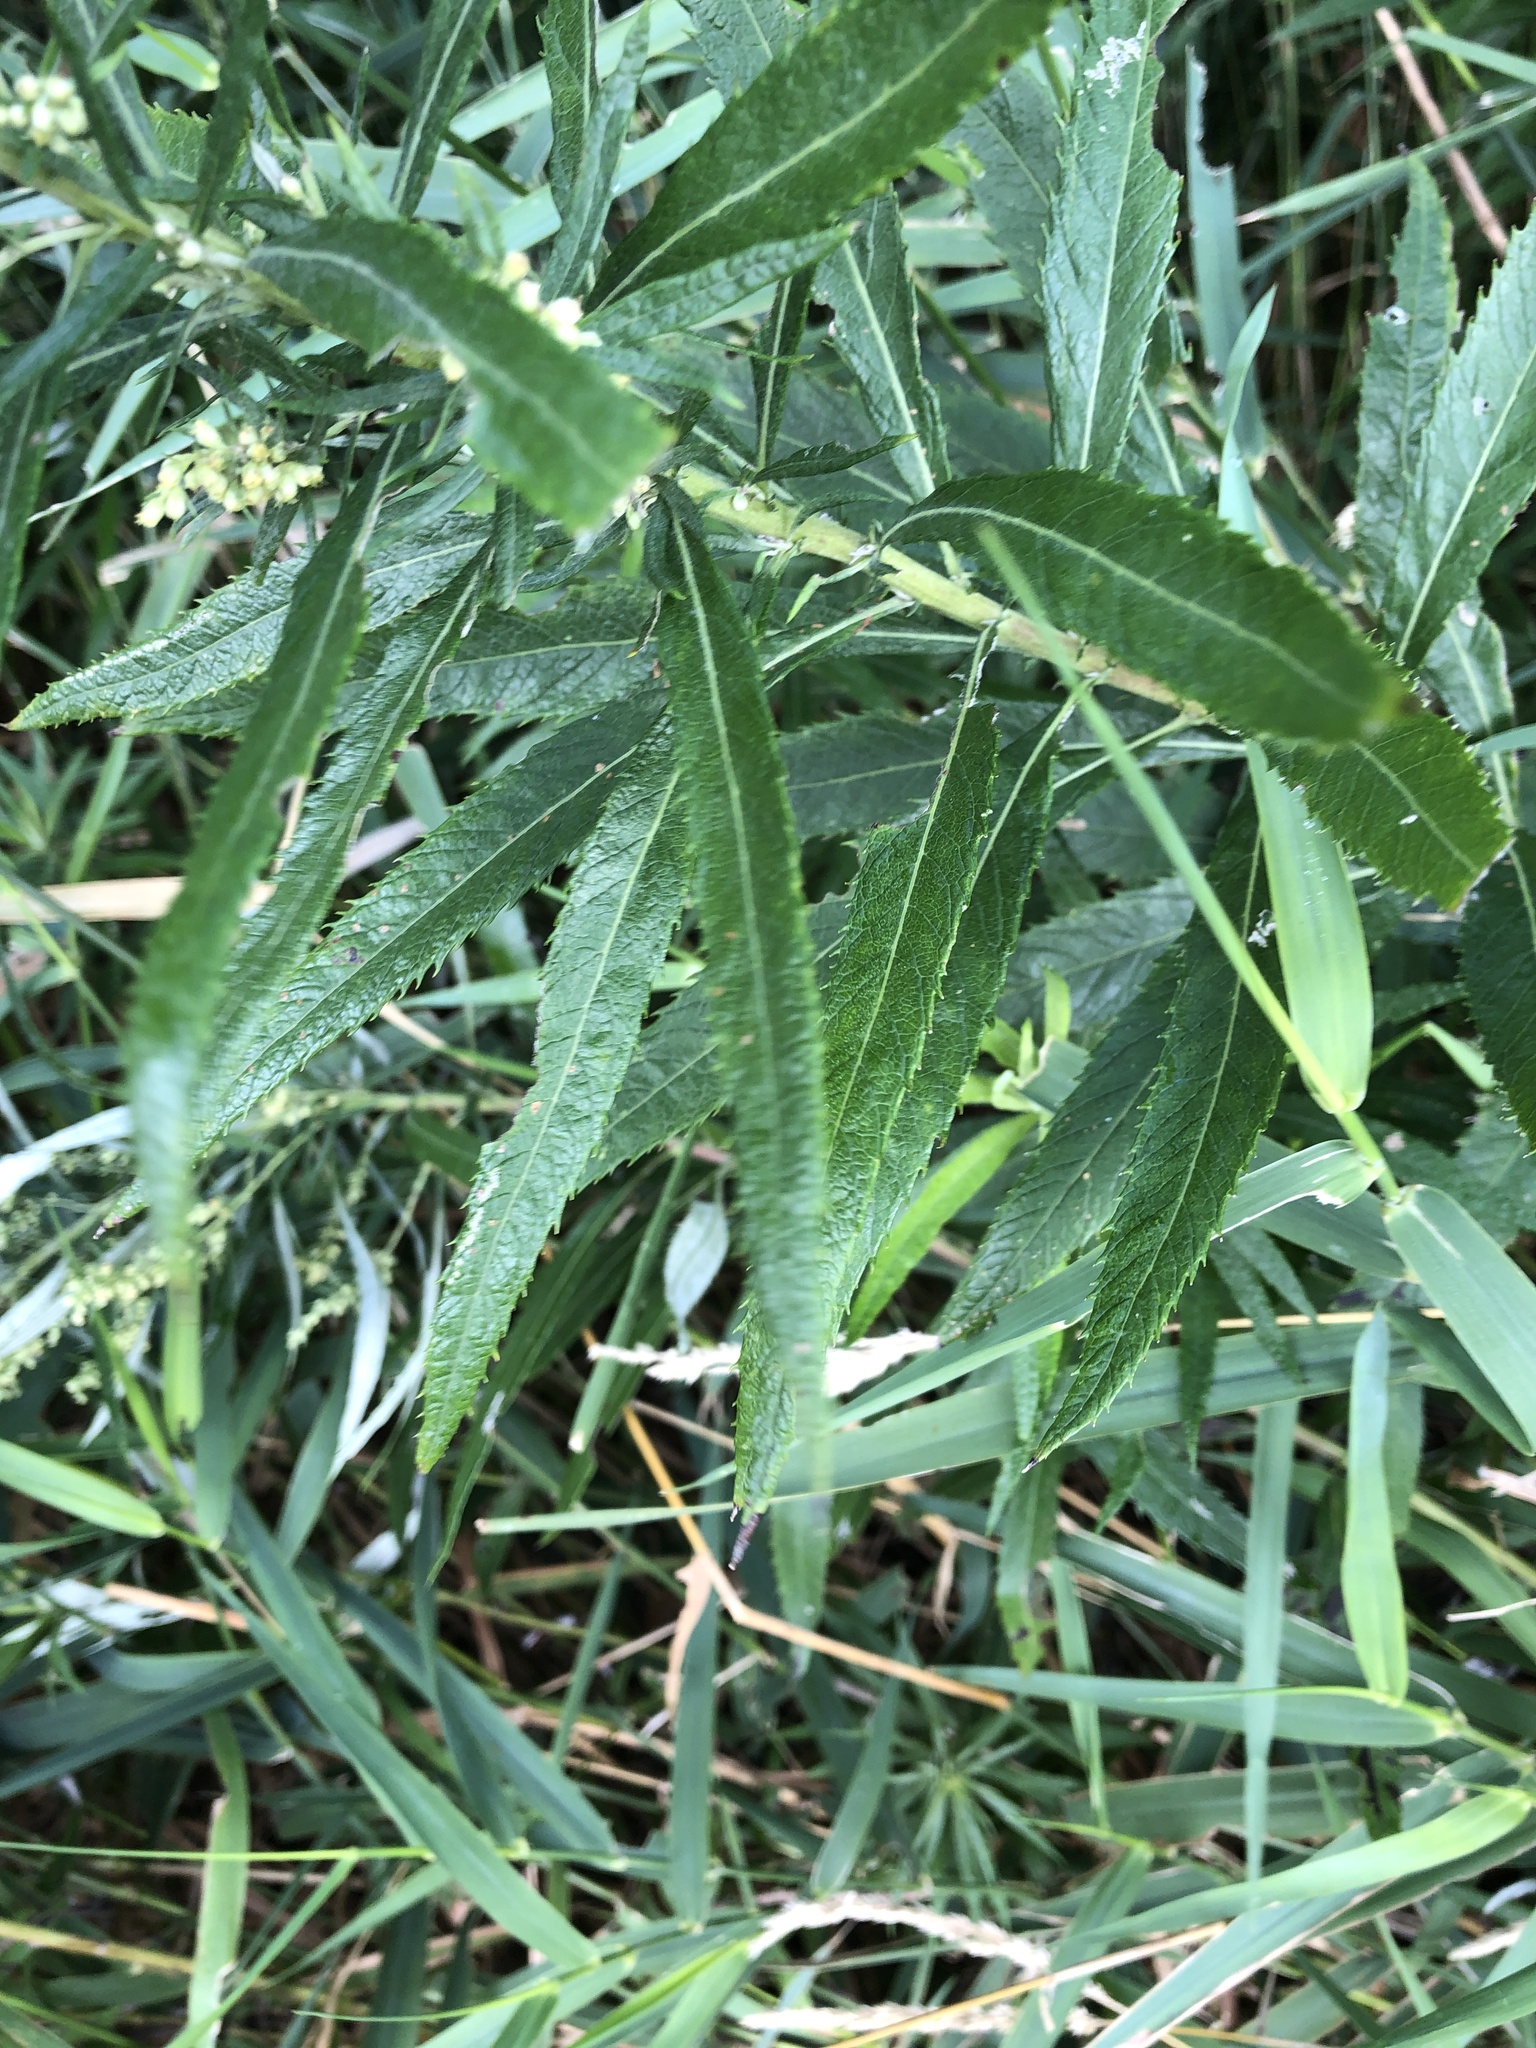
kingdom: Plantae
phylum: Tracheophyta
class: Magnoliopsida
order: Asterales
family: Asteraceae
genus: Artemisia
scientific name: Artemisia serrata
